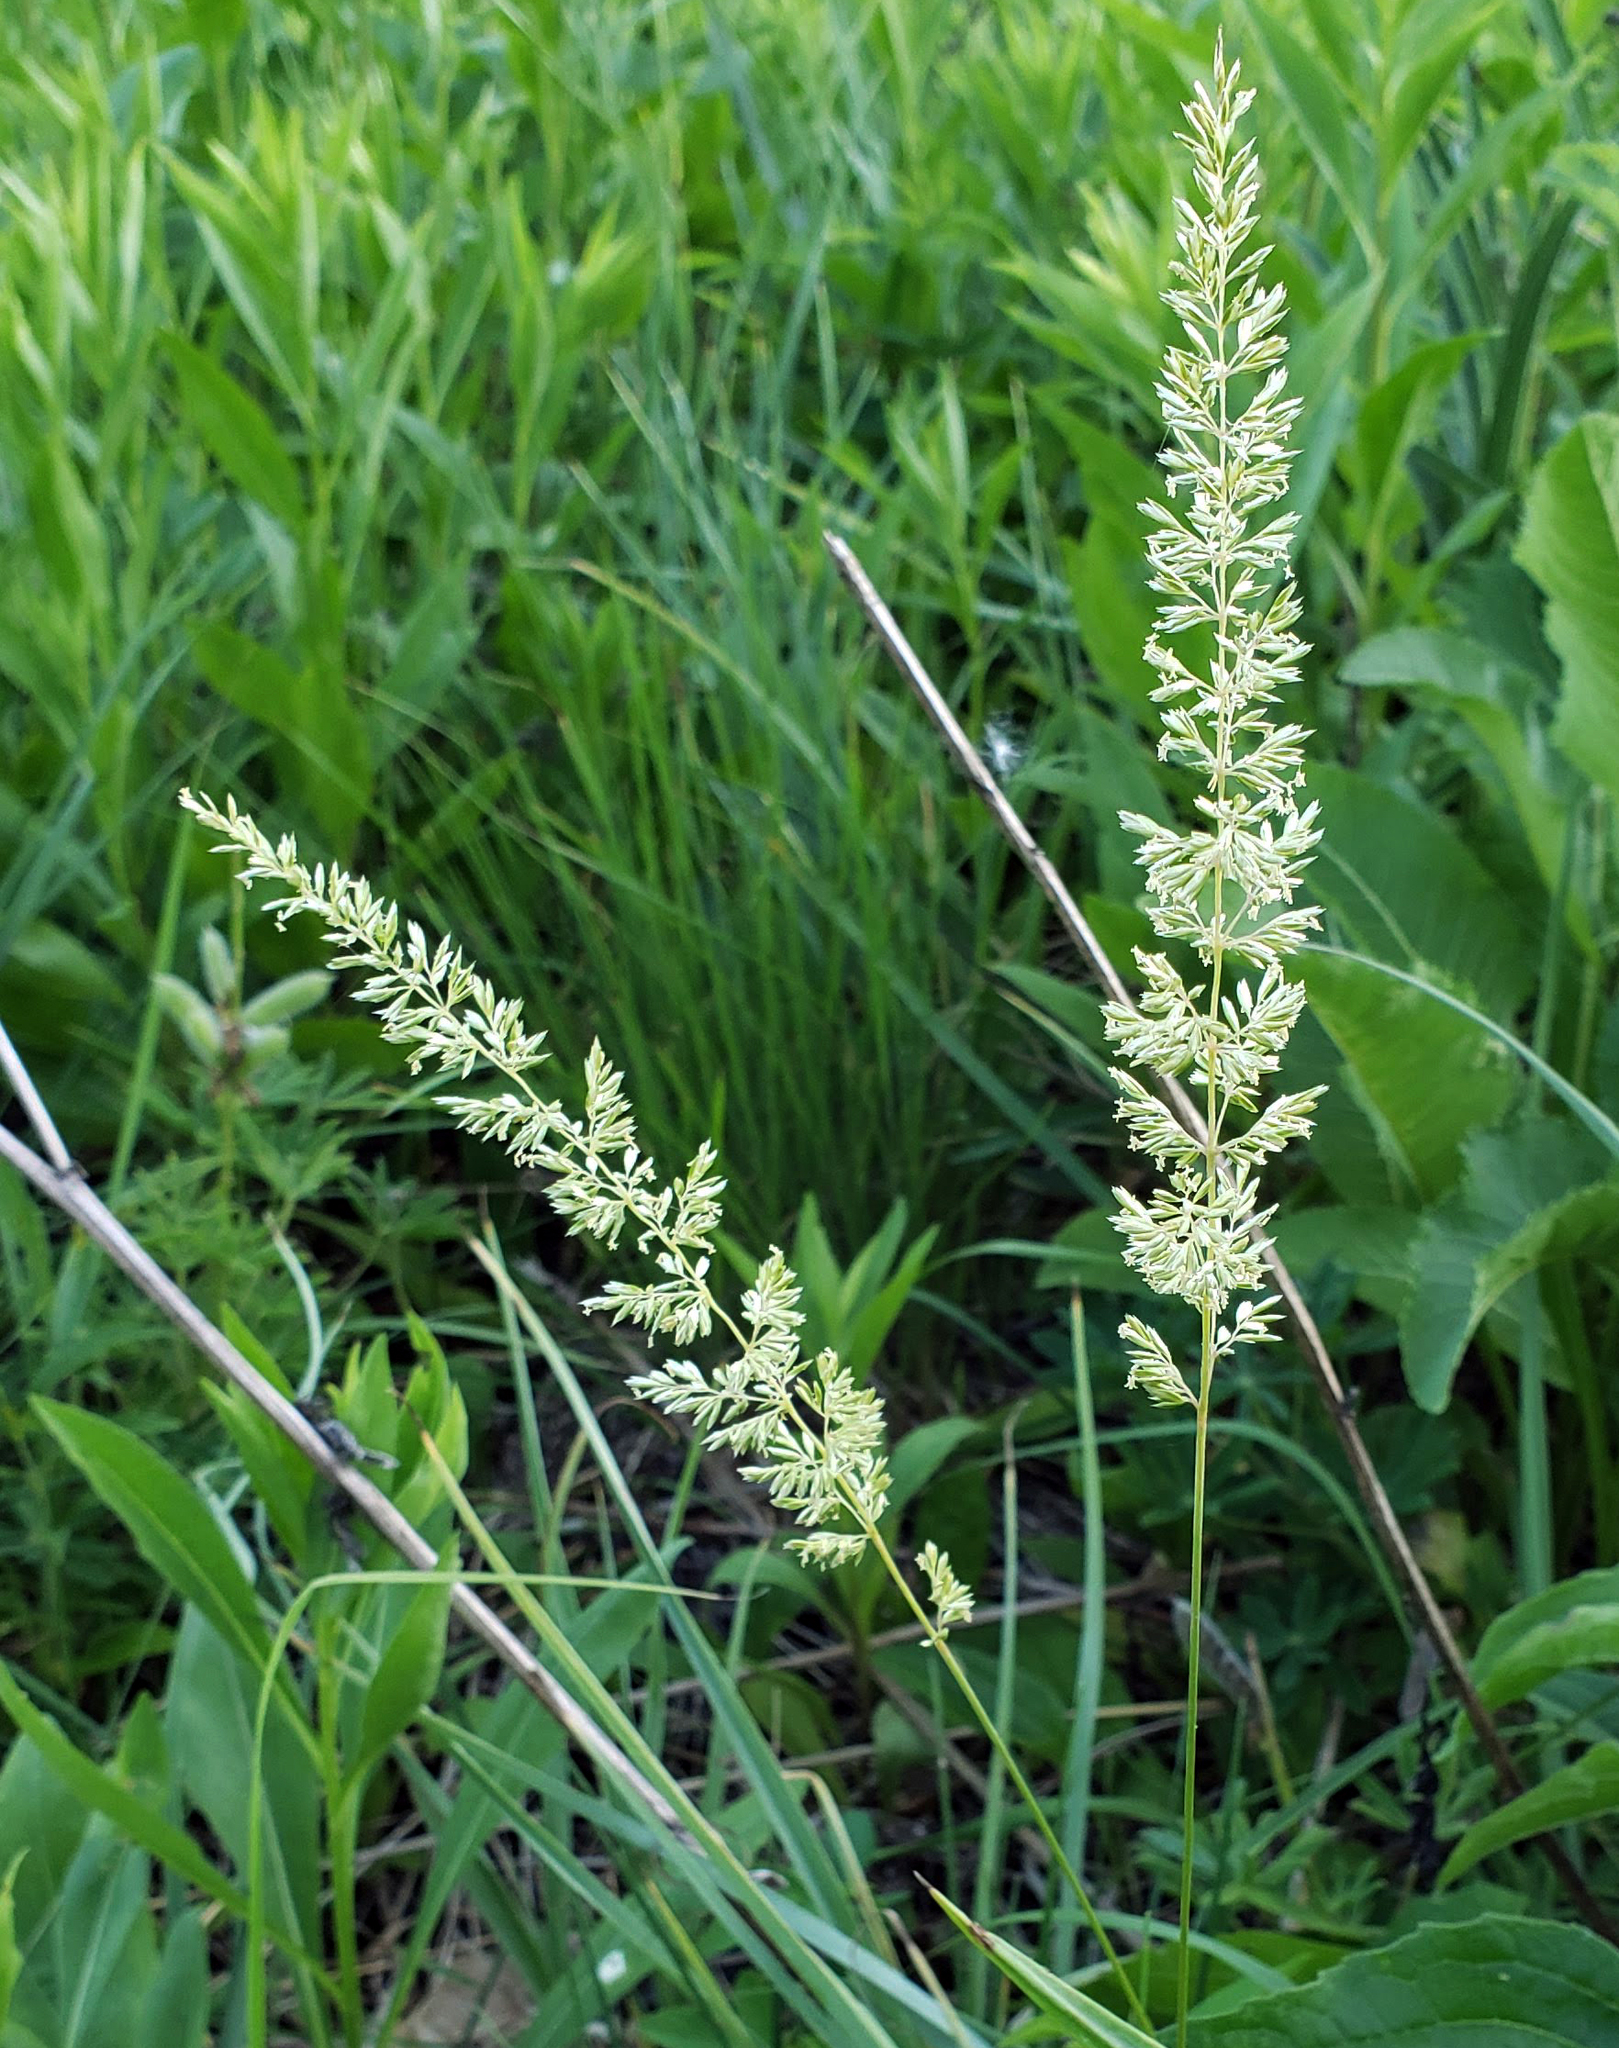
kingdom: Plantae
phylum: Tracheophyta
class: Liliopsida
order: Poales
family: Poaceae
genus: Koeleria
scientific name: Koeleria macrantha
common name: Crested hair-grass
